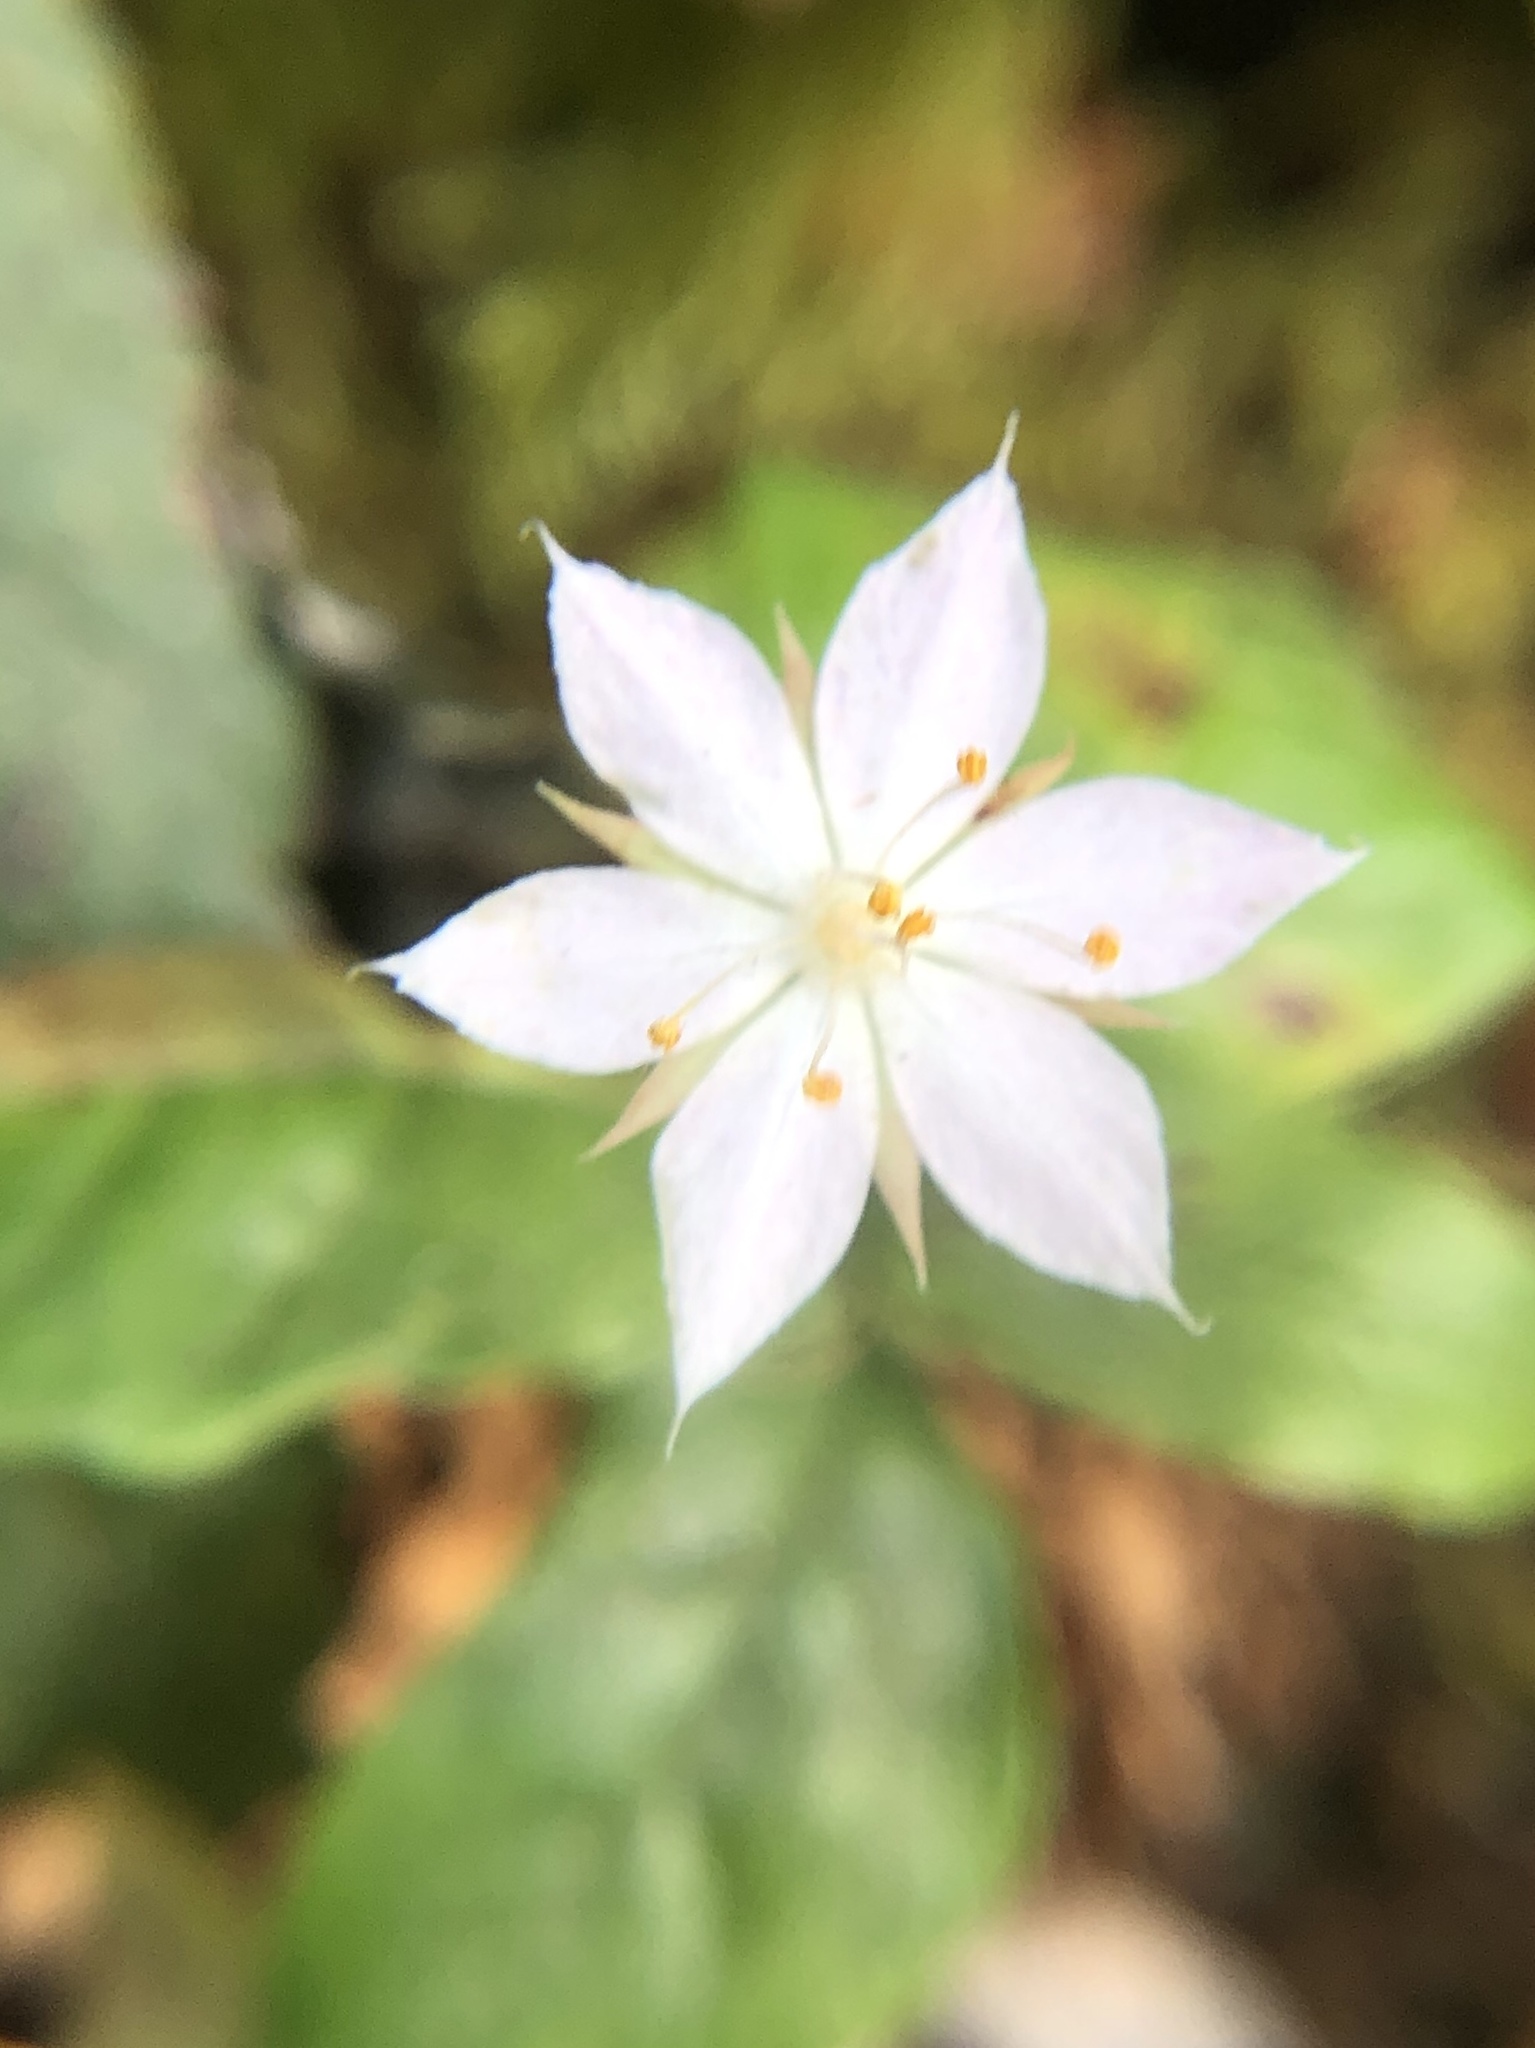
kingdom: Plantae
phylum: Tracheophyta
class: Magnoliopsida
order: Ericales
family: Primulaceae
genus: Lysimachia
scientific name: Lysimachia latifolia
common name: Pacific starflower
